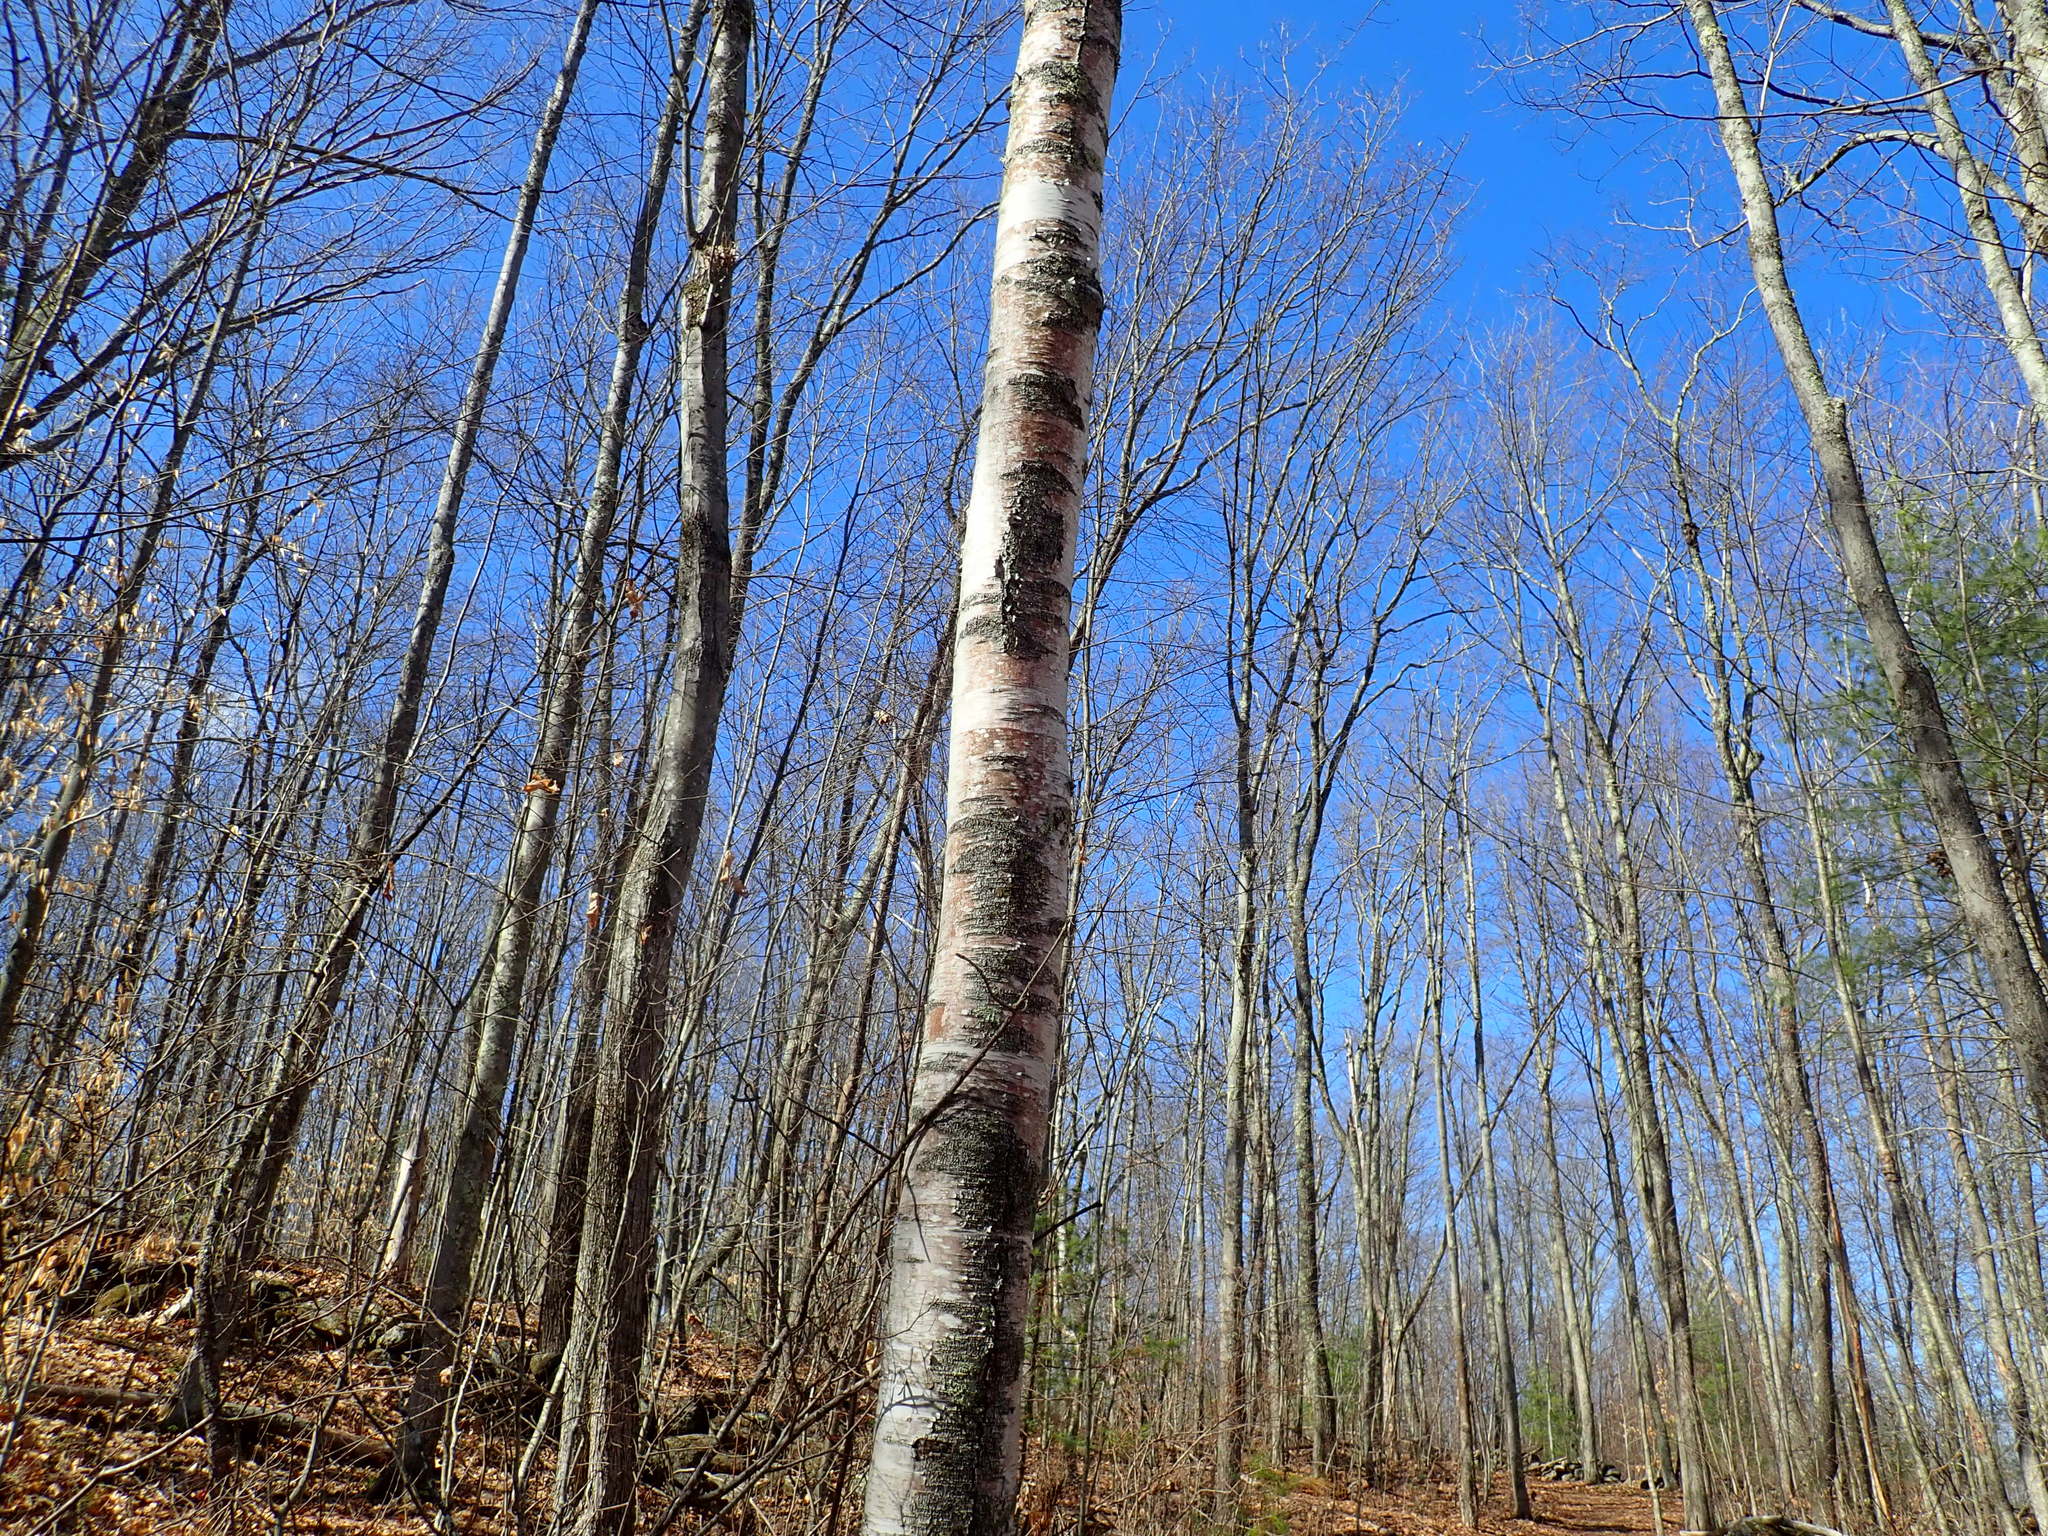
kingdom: Plantae
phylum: Tracheophyta
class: Magnoliopsida
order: Fagales
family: Betulaceae
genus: Betula
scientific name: Betula papyrifera
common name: Paper birch
